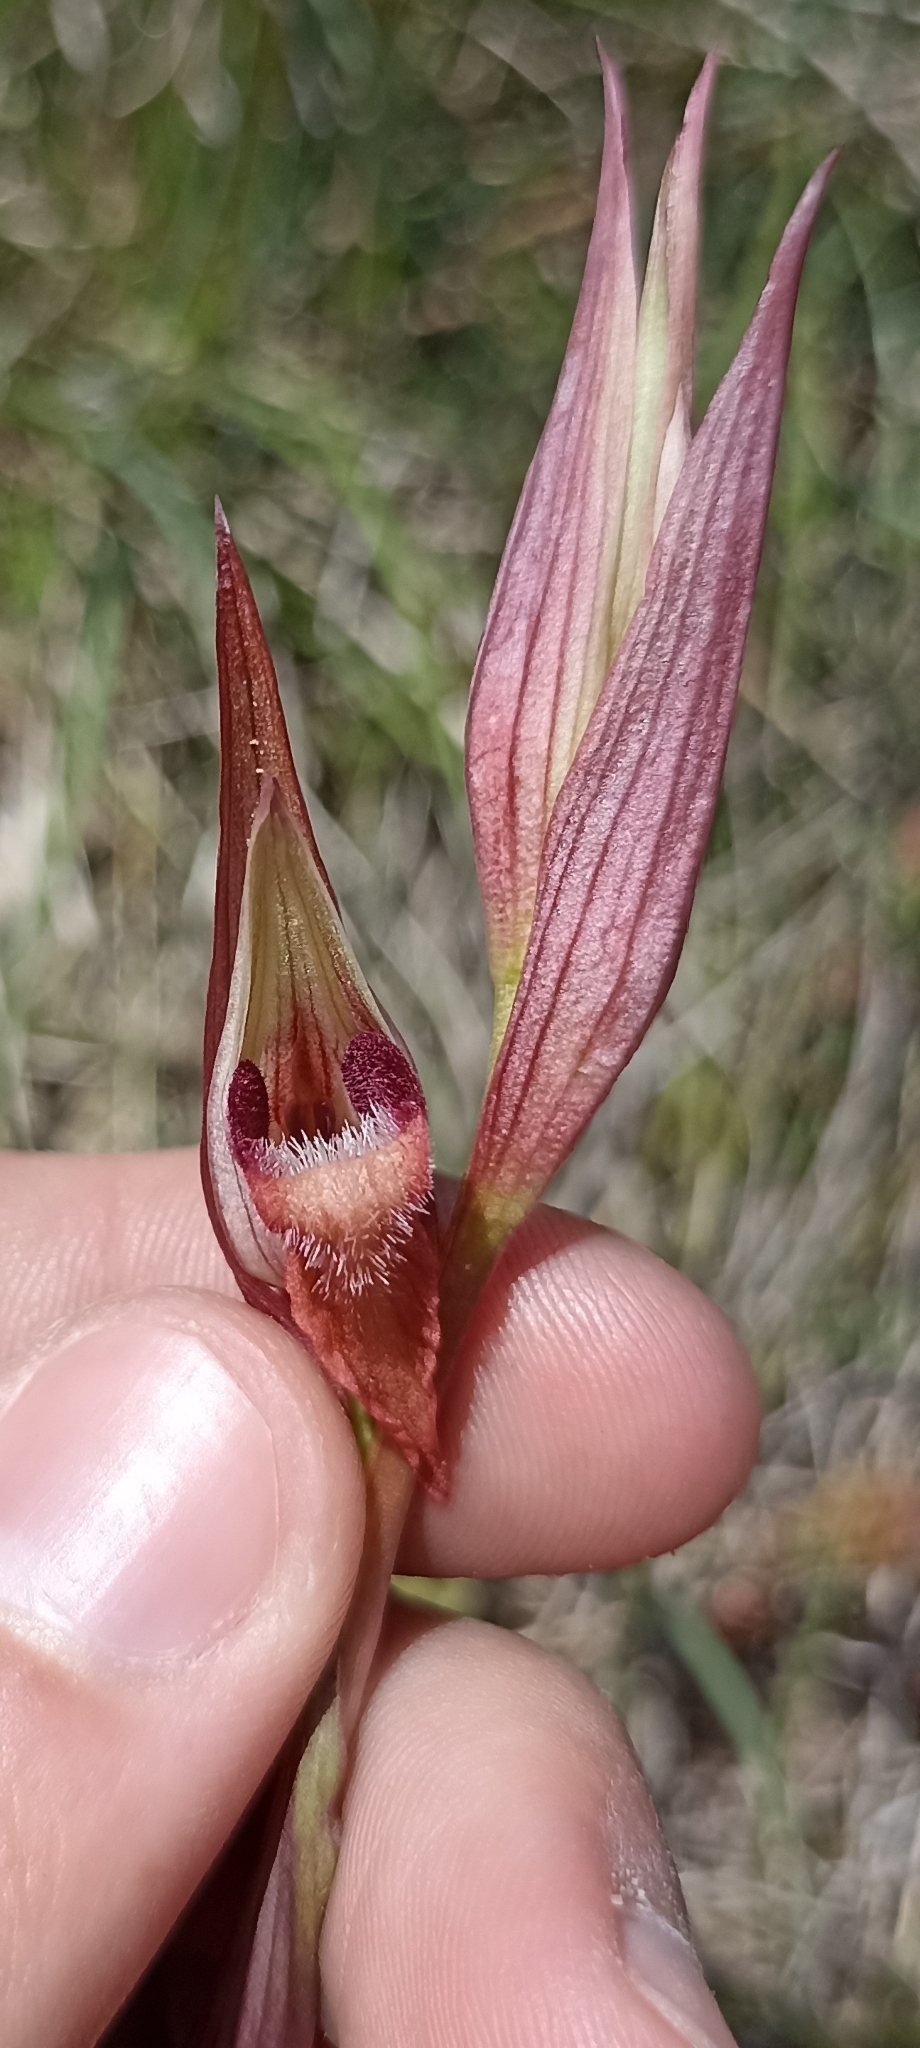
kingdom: Plantae
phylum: Tracheophyta
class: Liliopsida
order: Asparagales
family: Orchidaceae
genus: Serapias
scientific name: Serapias vomeracea
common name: Long-lipped tongue-orchid
